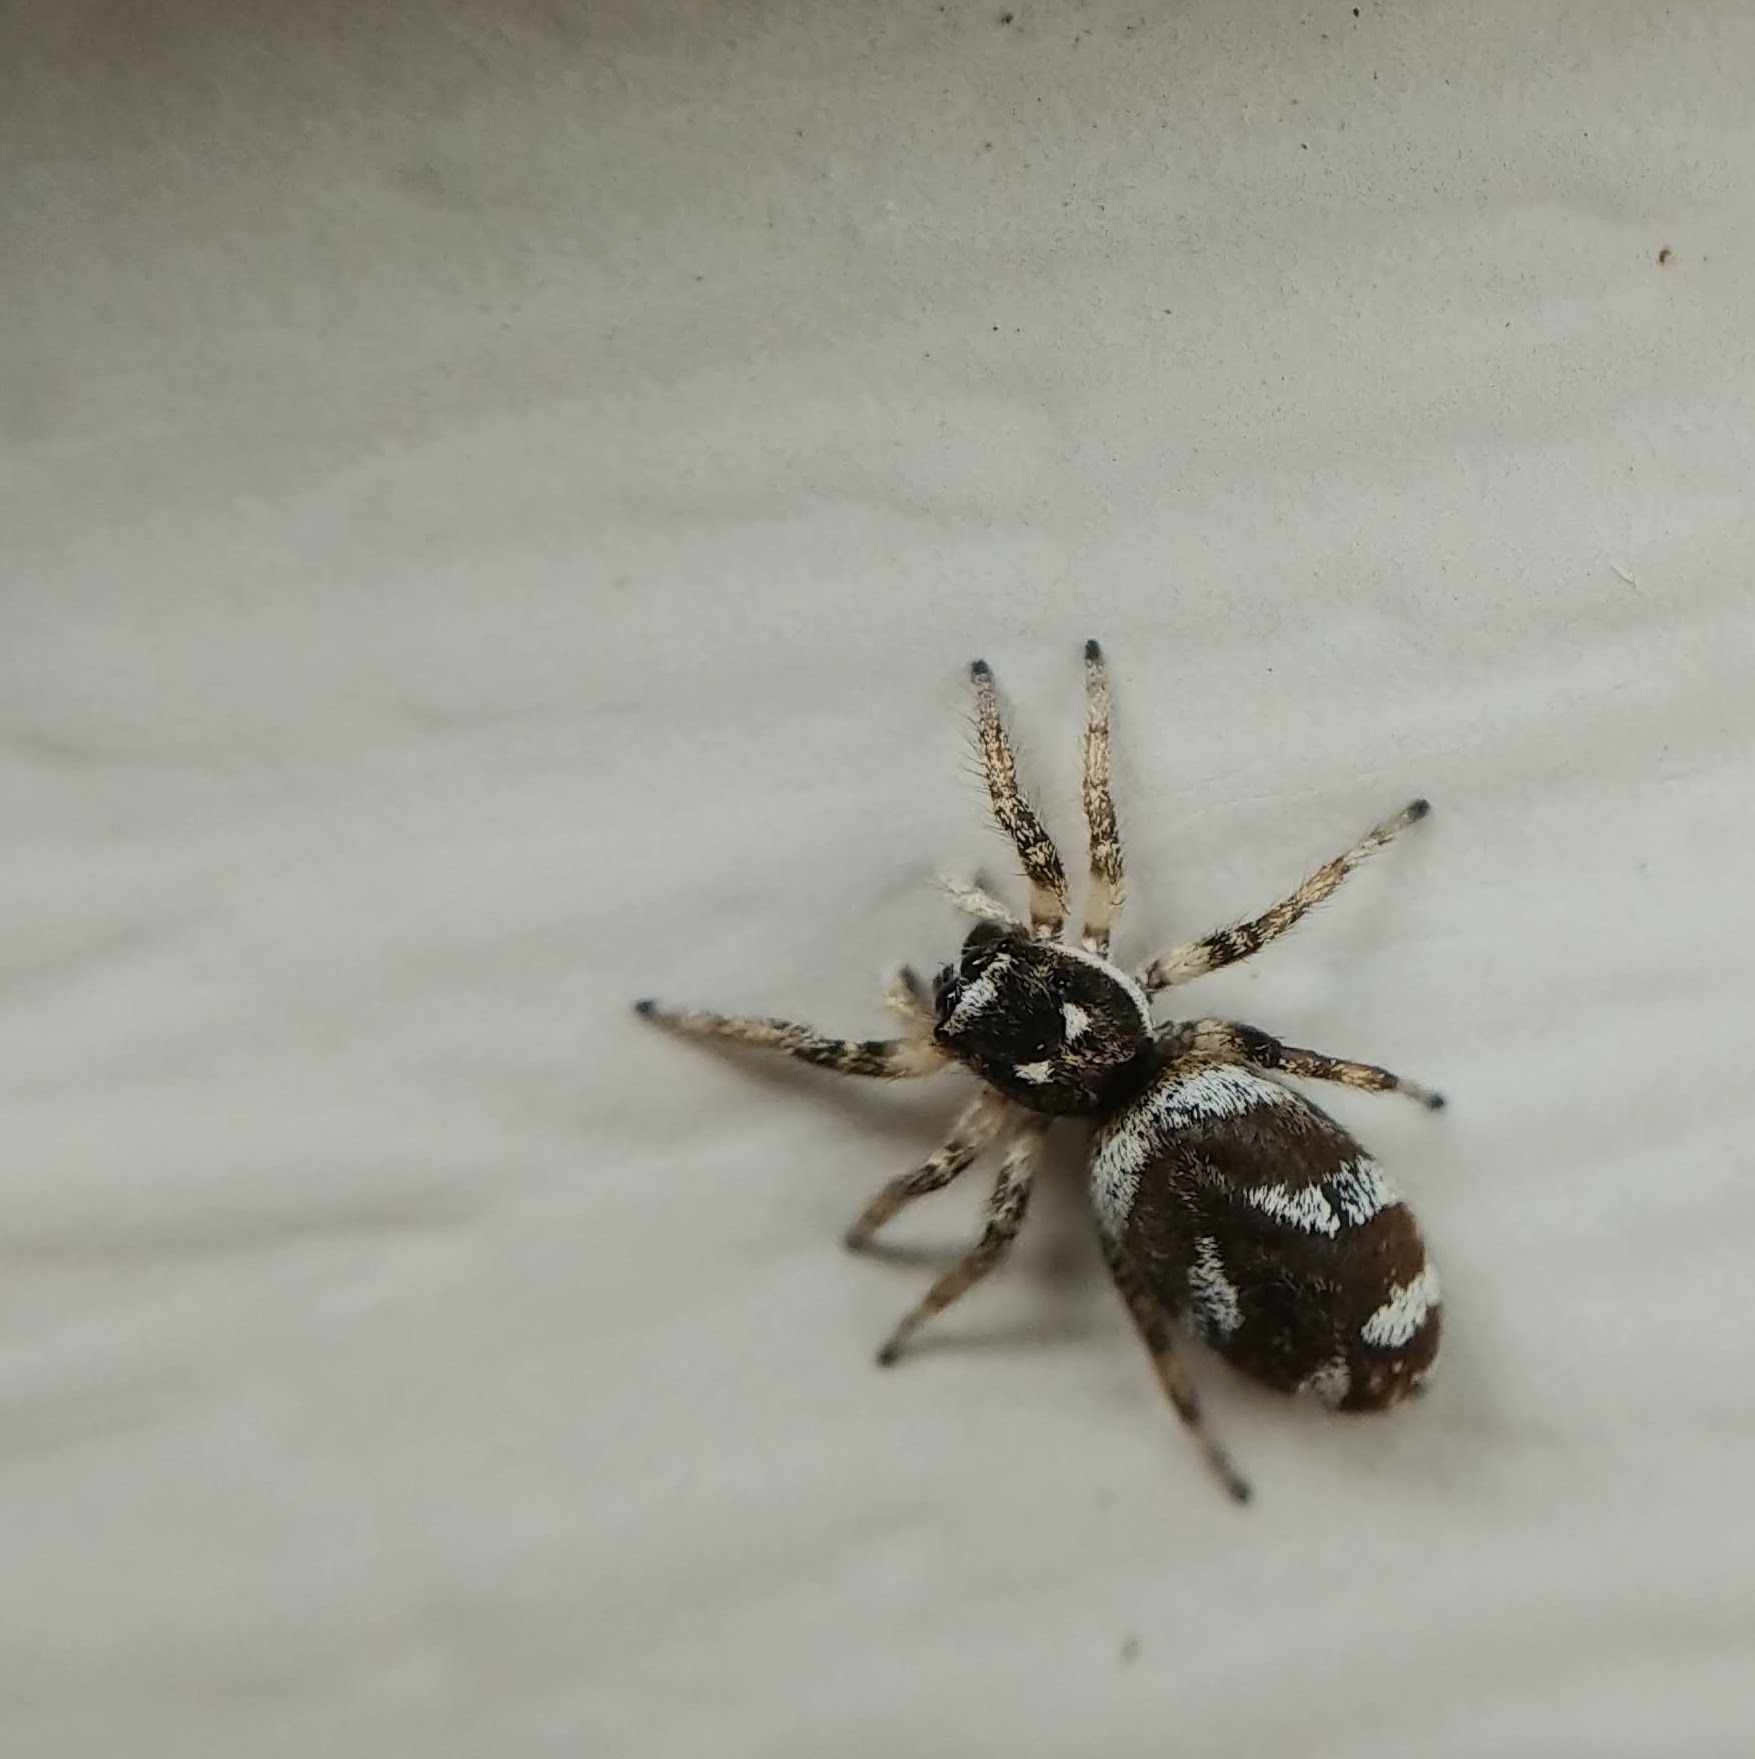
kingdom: Animalia
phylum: Arthropoda
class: Arachnida
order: Araneae
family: Salticidae
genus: Salticus
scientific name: Salticus scenicus
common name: Zebra jumper
